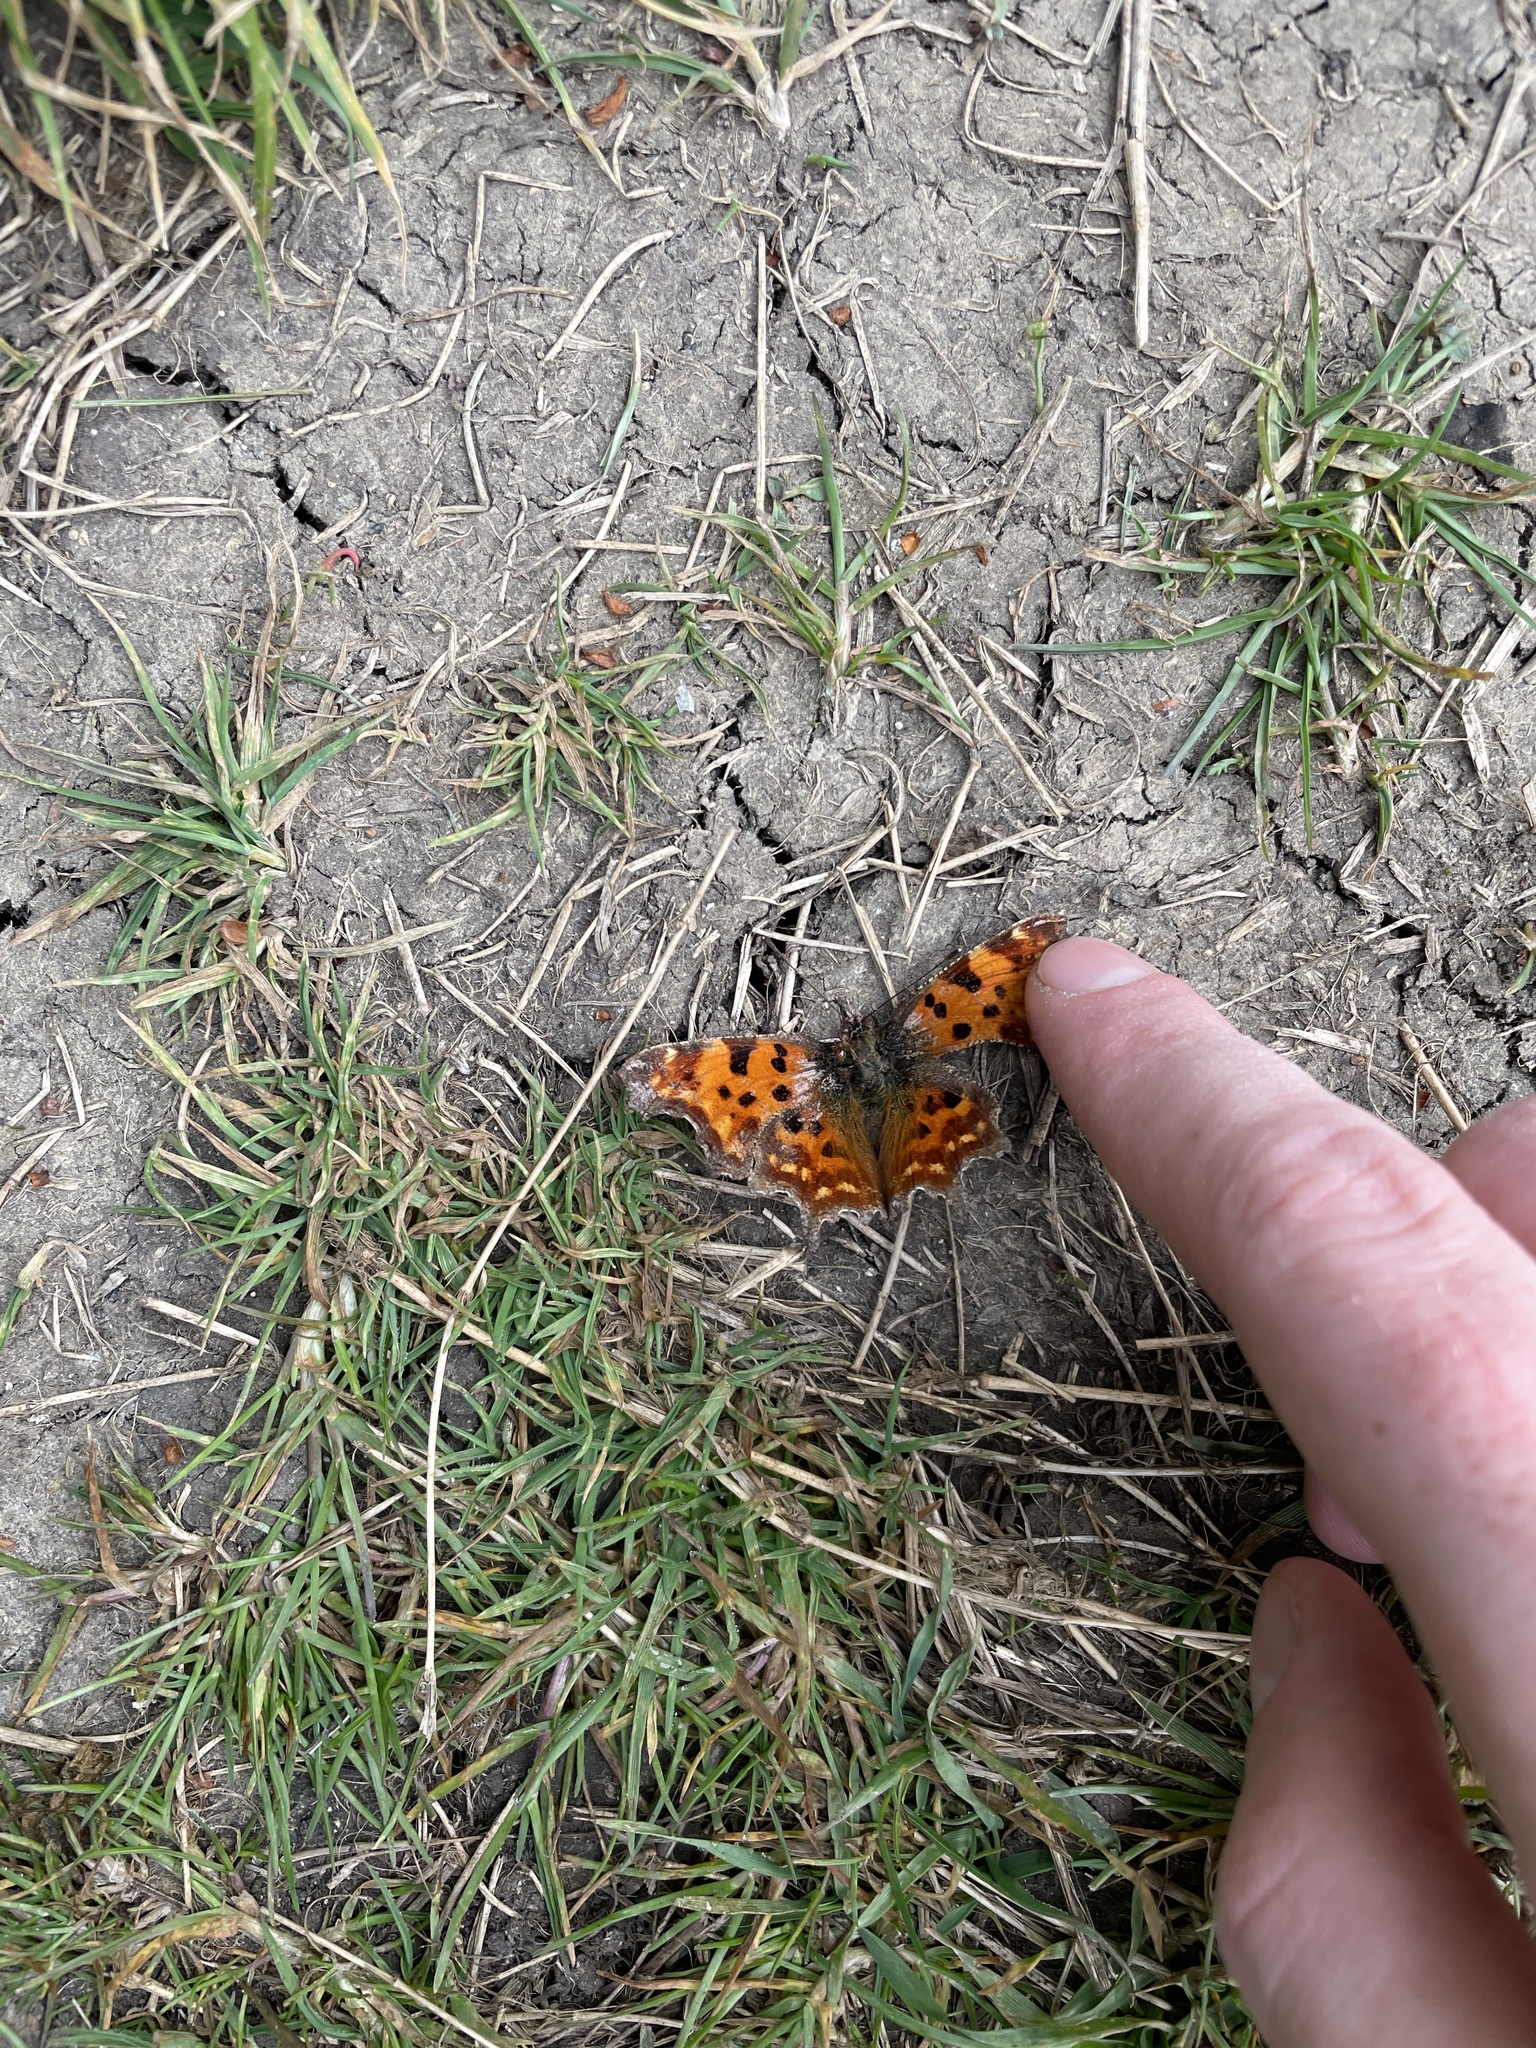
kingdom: Animalia
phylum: Arthropoda
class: Insecta
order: Lepidoptera
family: Nymphalidae
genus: Polygonia
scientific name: Polygonia c-album
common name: Comma
